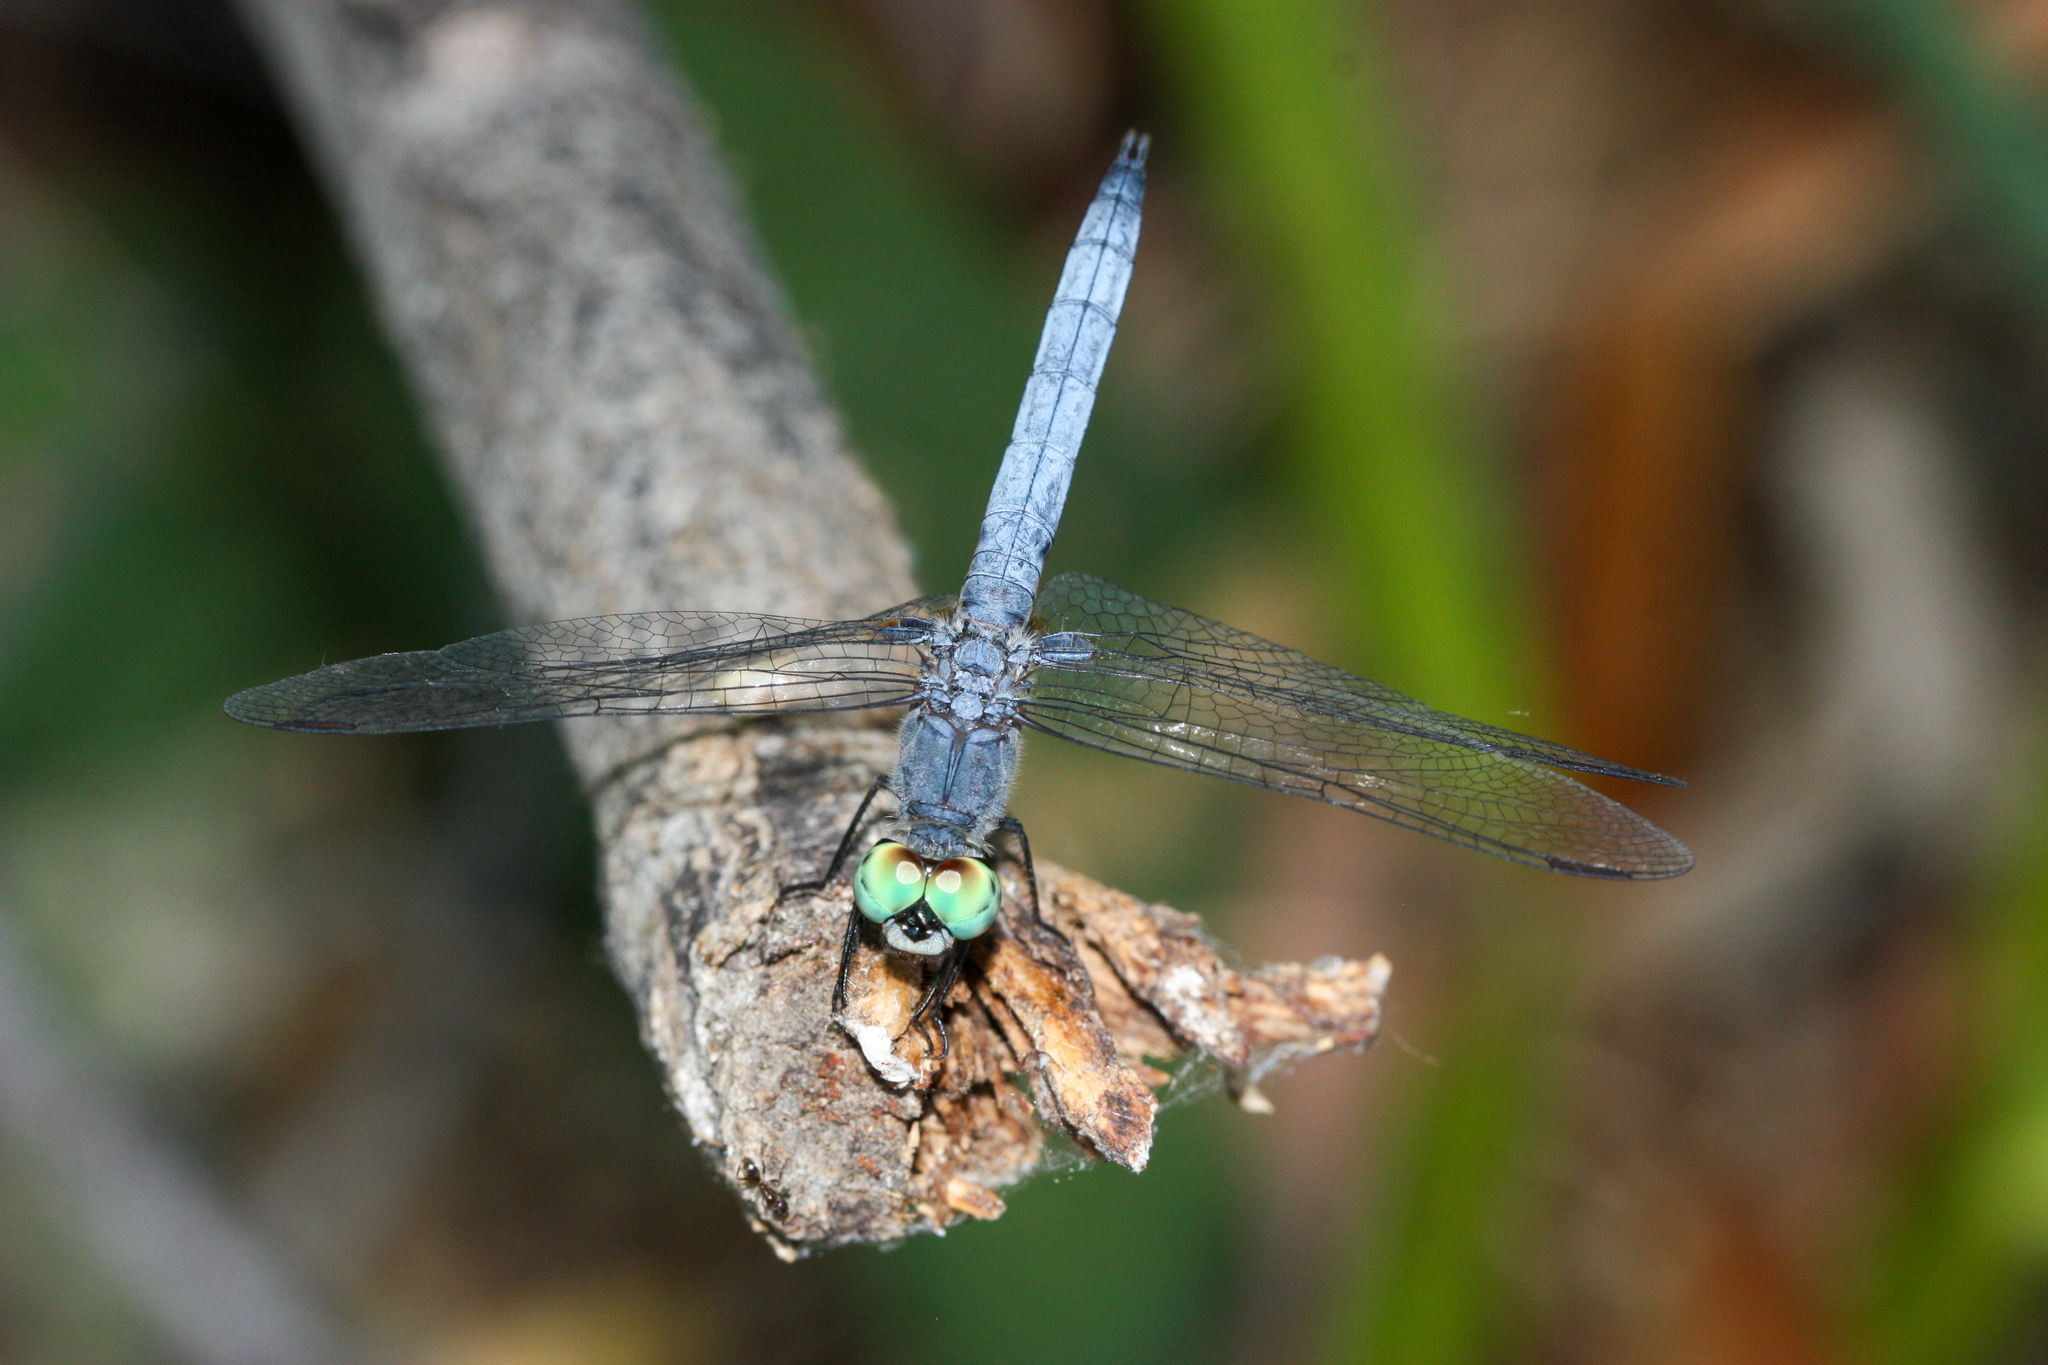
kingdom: Animalia
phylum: Arthropoda
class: Insecta
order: Odonata
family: Libellulidae
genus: Pachydiplax
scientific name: Pachydiplax longipennis
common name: Blue dasher
